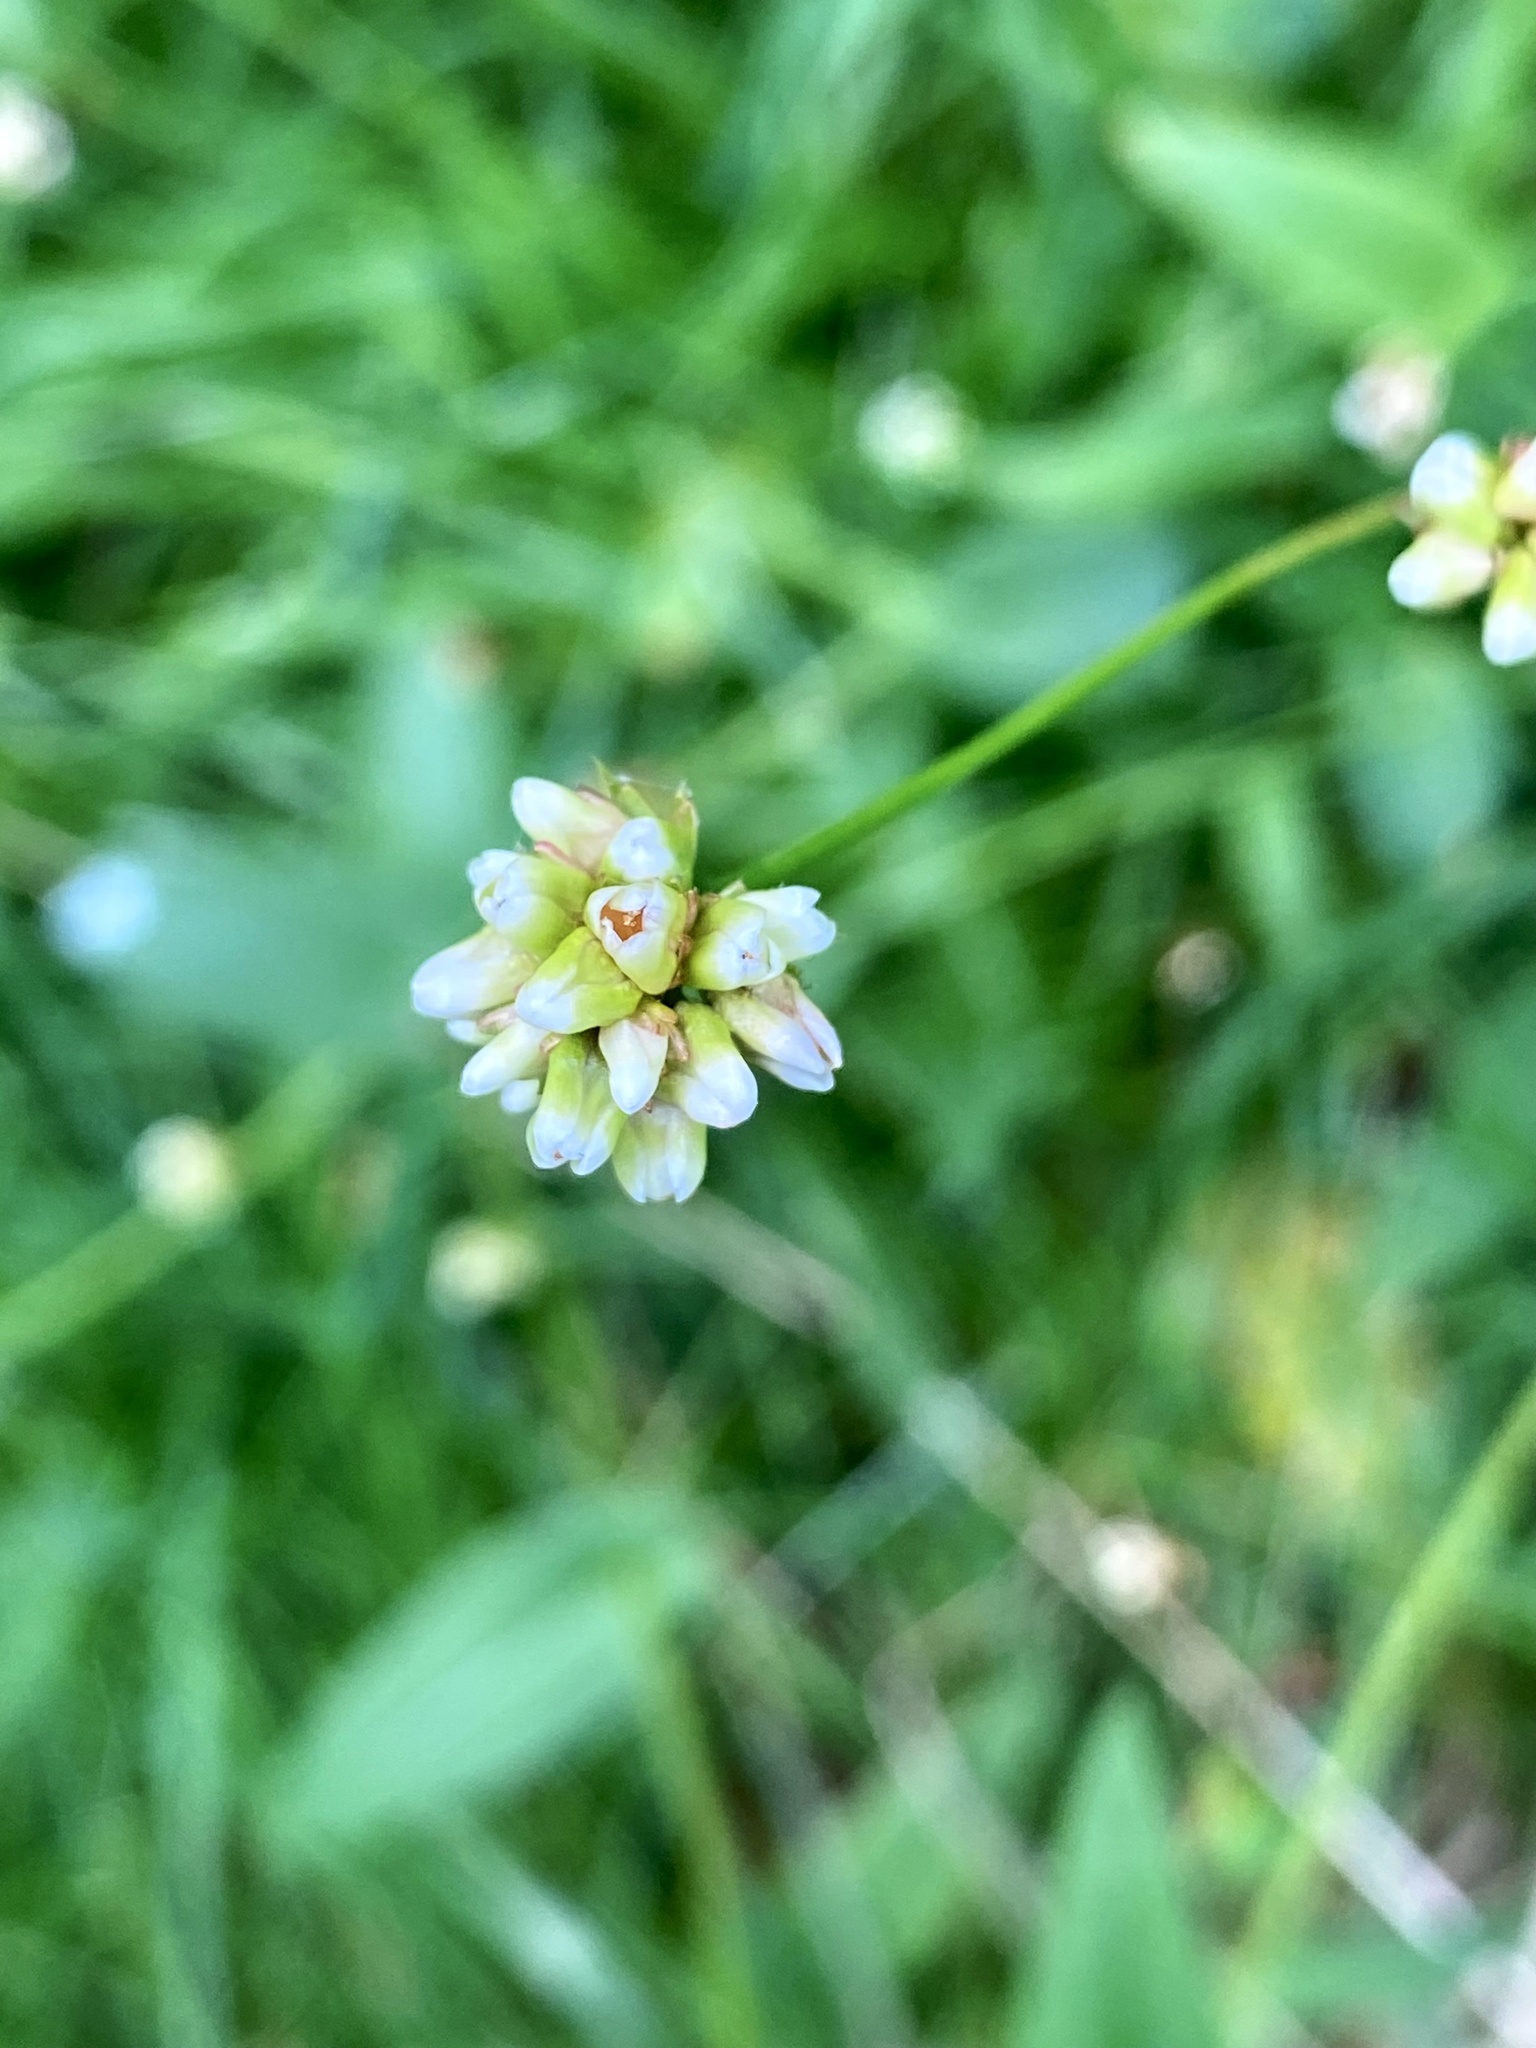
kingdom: Plantae
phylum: Tracheophyta
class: Magnoliopsida
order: Caryophyllales
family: Polygonaceae
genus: Persicaria
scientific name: Persicaria sagittata
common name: American tearthumb
